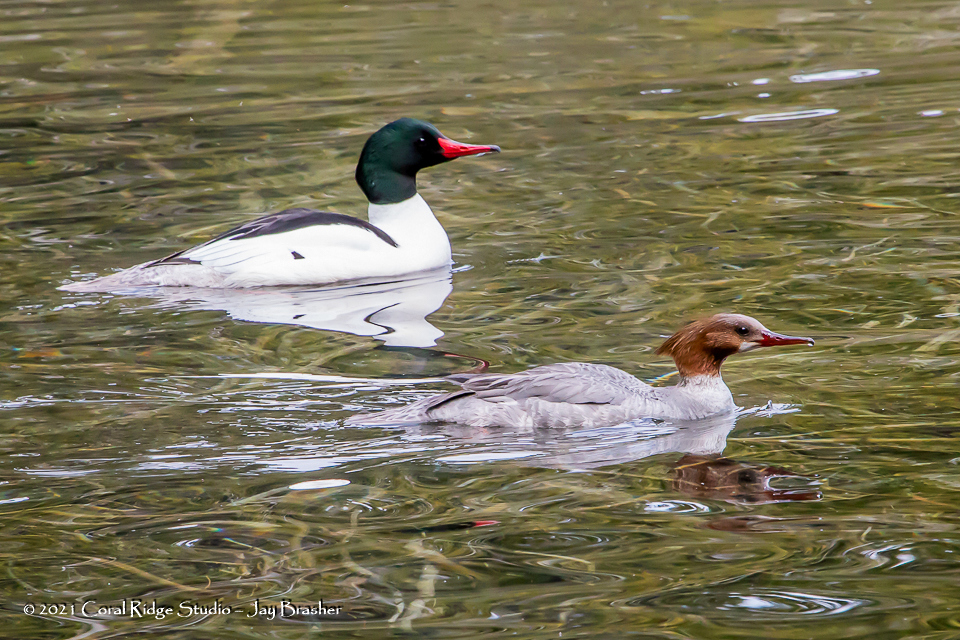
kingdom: Animalia
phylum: Chordata
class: Aves
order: Anseriformes
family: Anatidae
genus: Mergus
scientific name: Mergus merganser
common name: Common merganser
